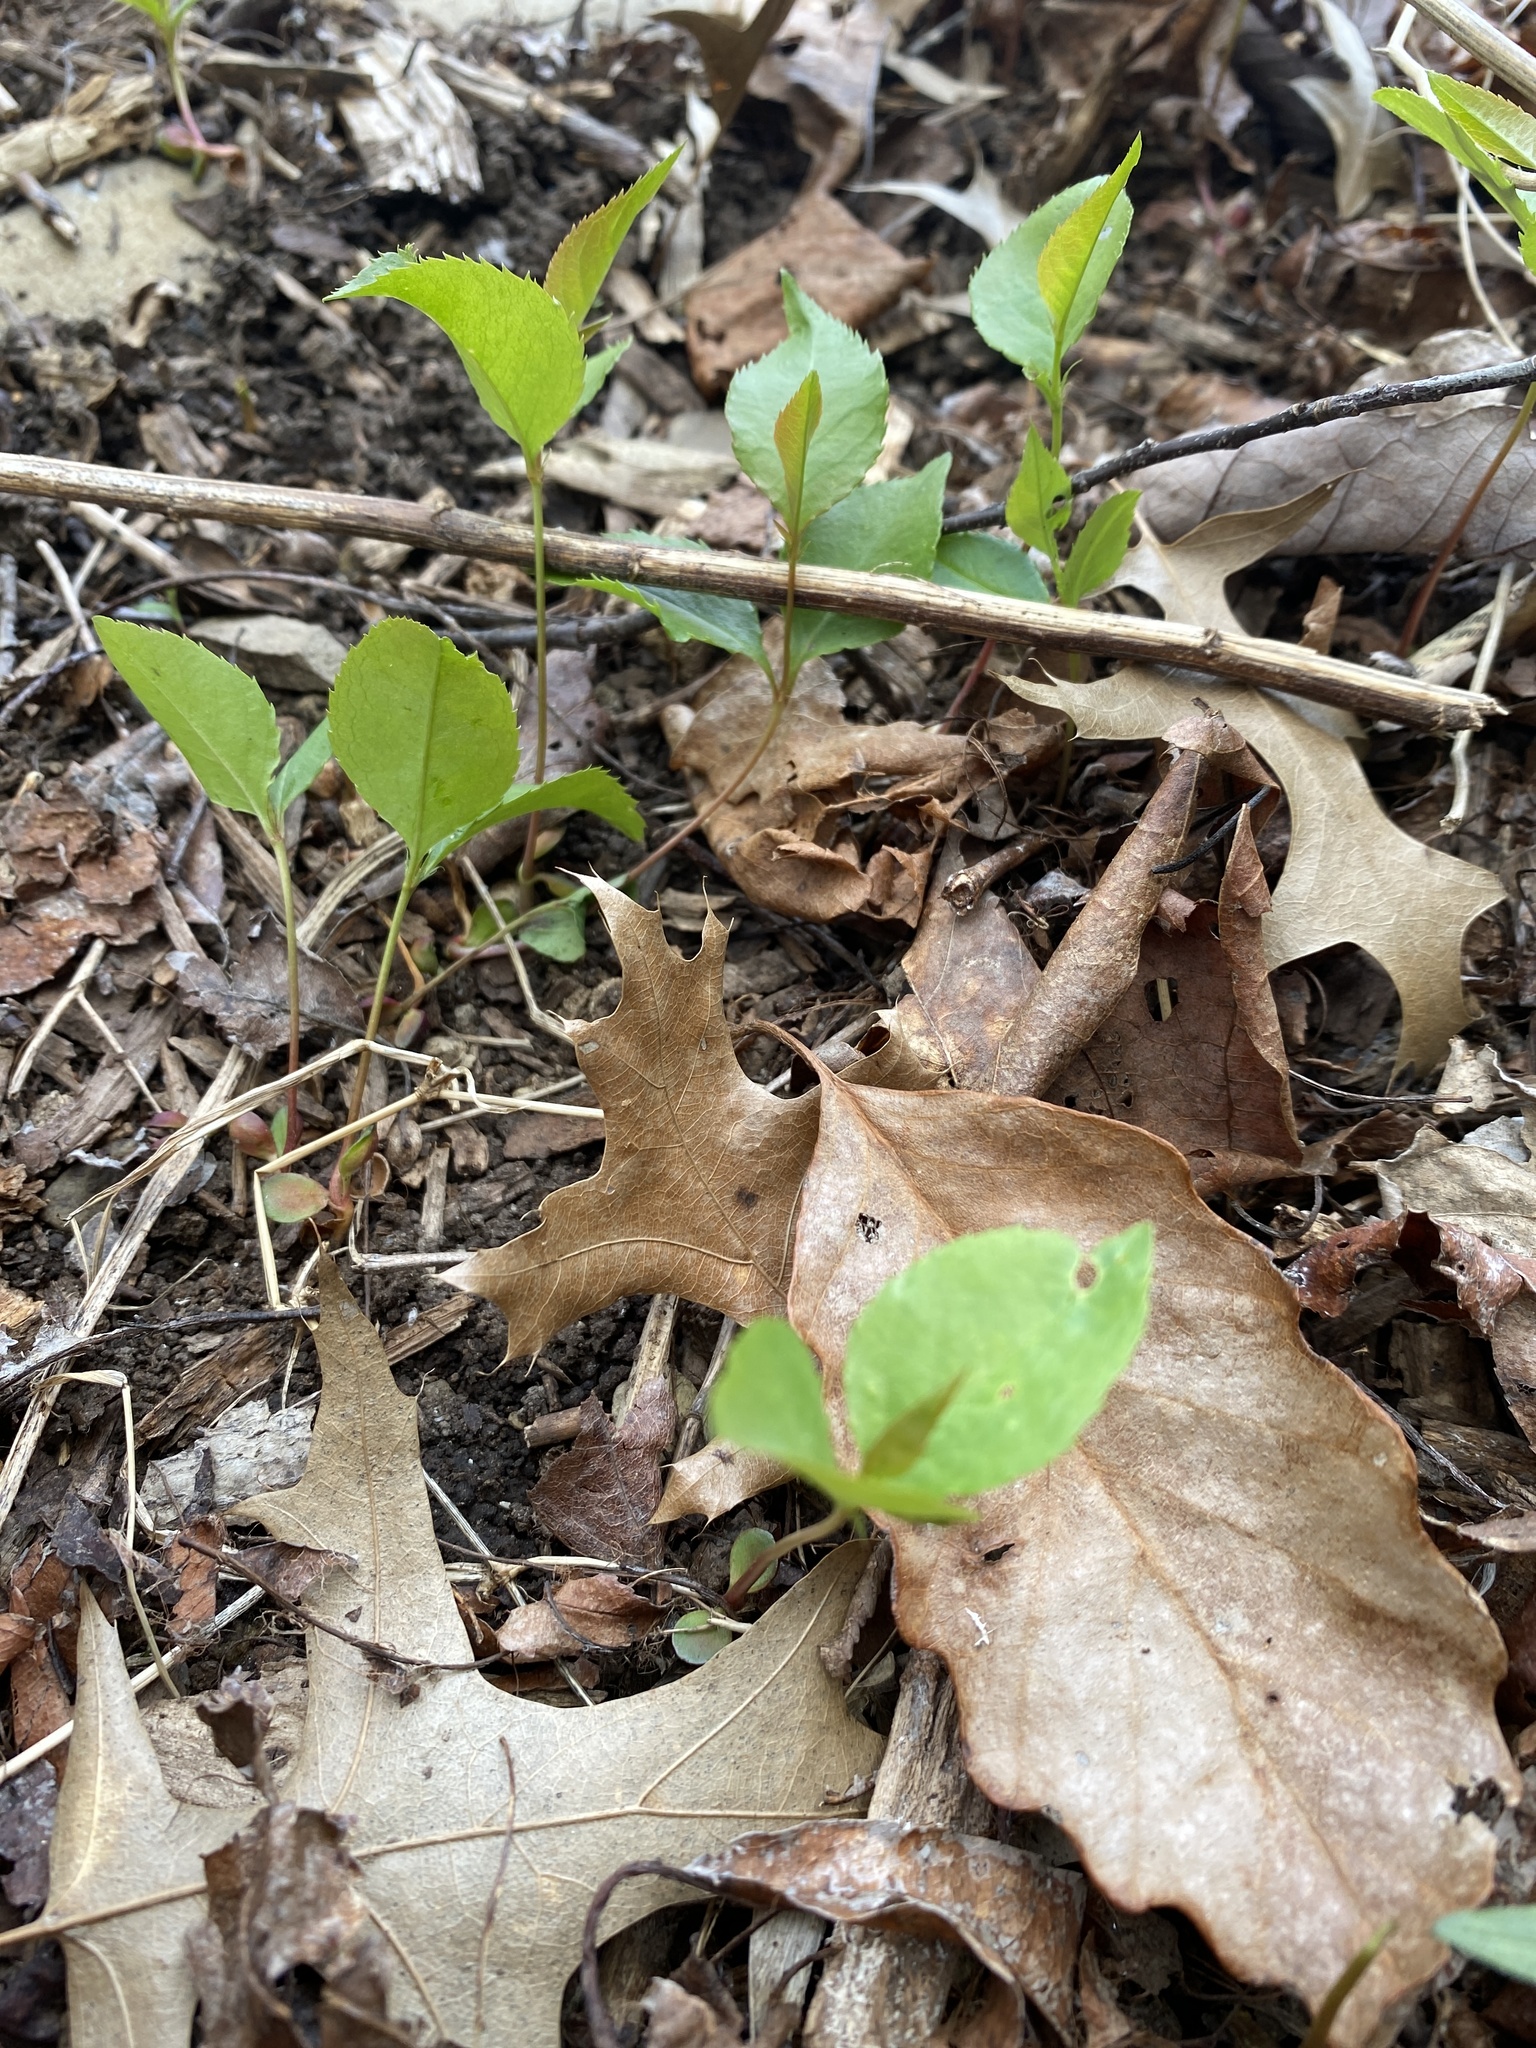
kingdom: Plantae
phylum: Tracheophyta
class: Magnoliopsida
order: Rosales
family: Rosaceae
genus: Prunus
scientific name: Prunus serotina
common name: Black cherry
